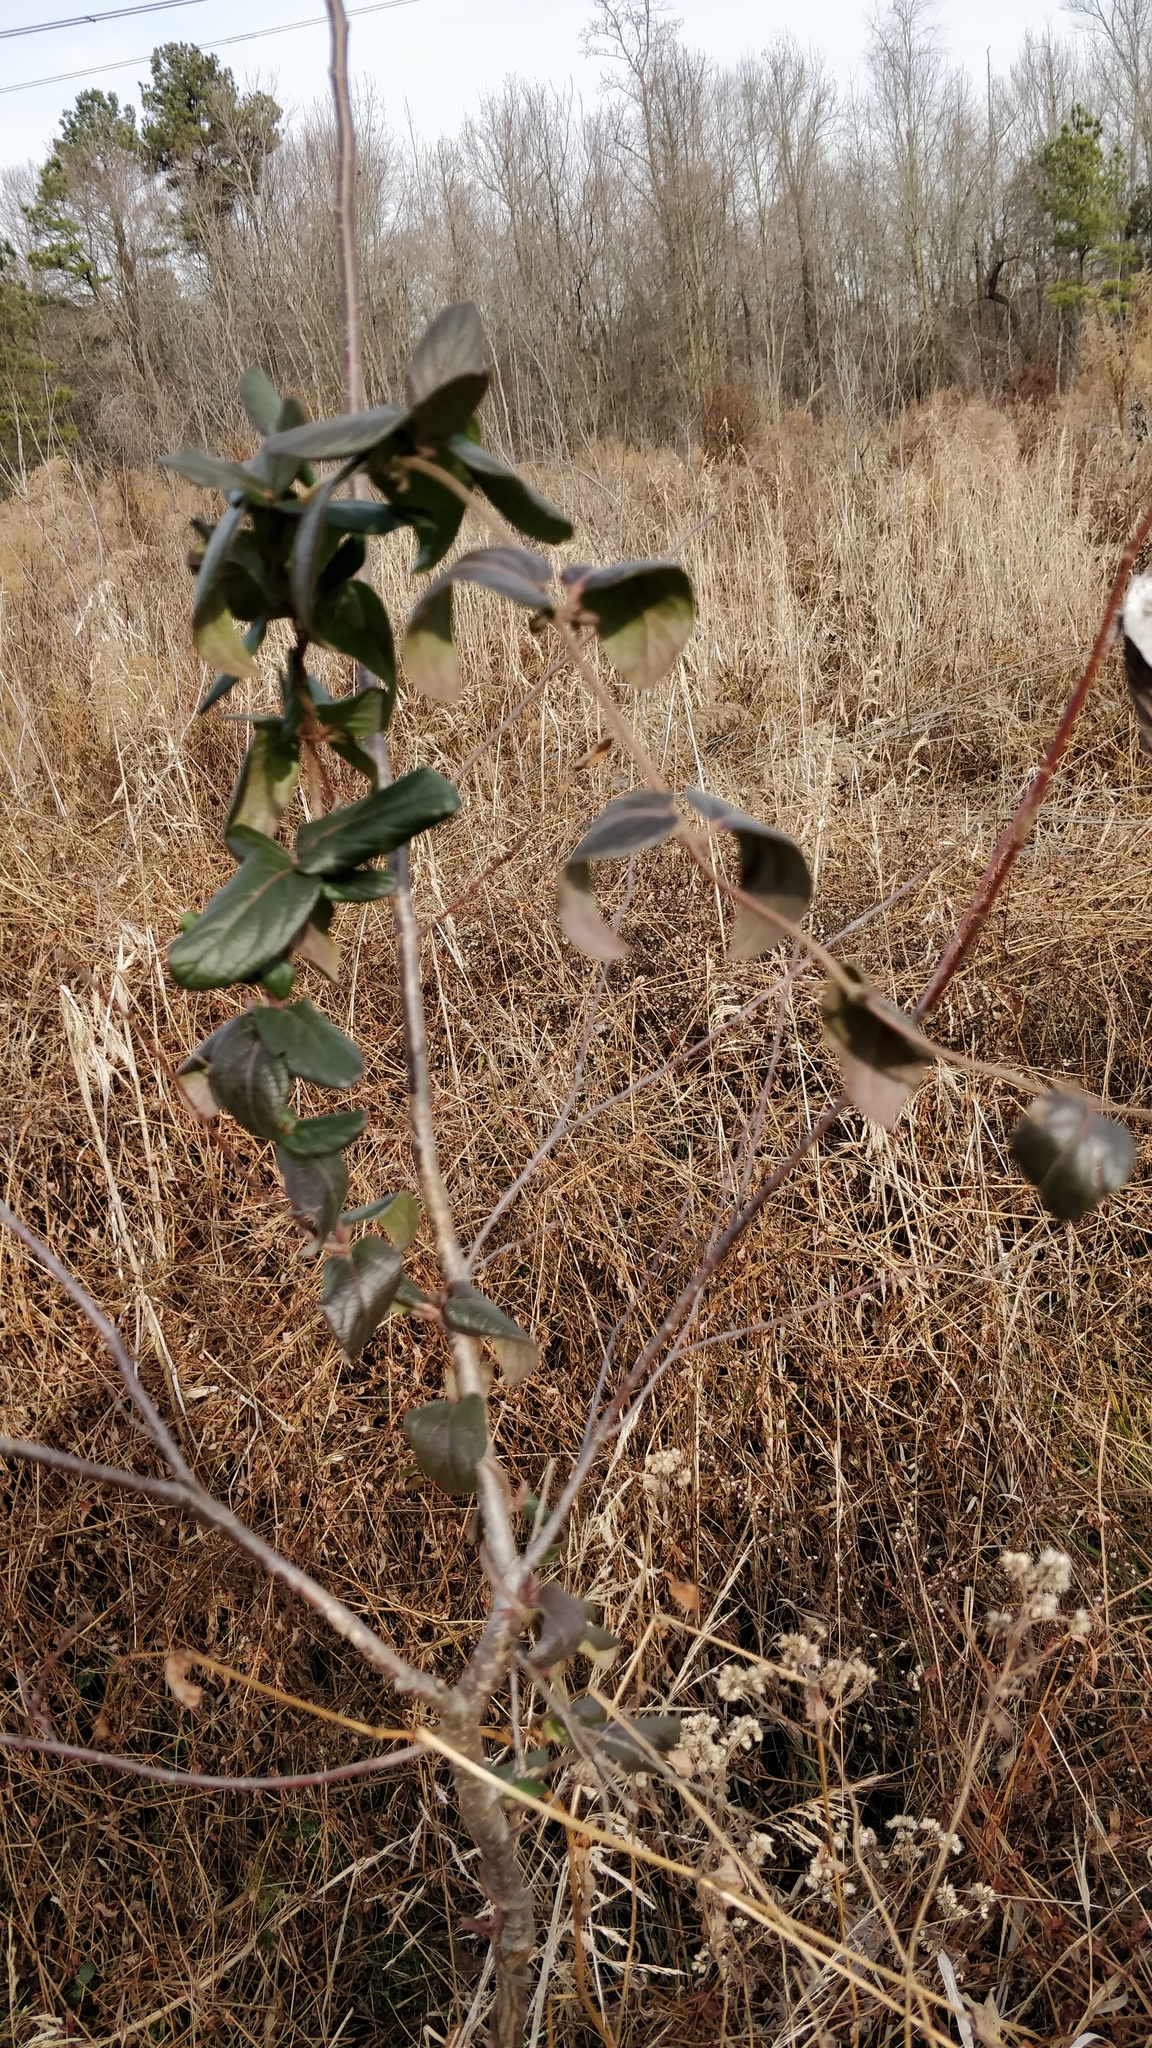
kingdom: Plantae
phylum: Tracheophyta
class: Magnoliopsida
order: Dipsacales
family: Caprifoliaceae
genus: Lonicera
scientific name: Lonicera japonica
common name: Japanese honeysuckle
